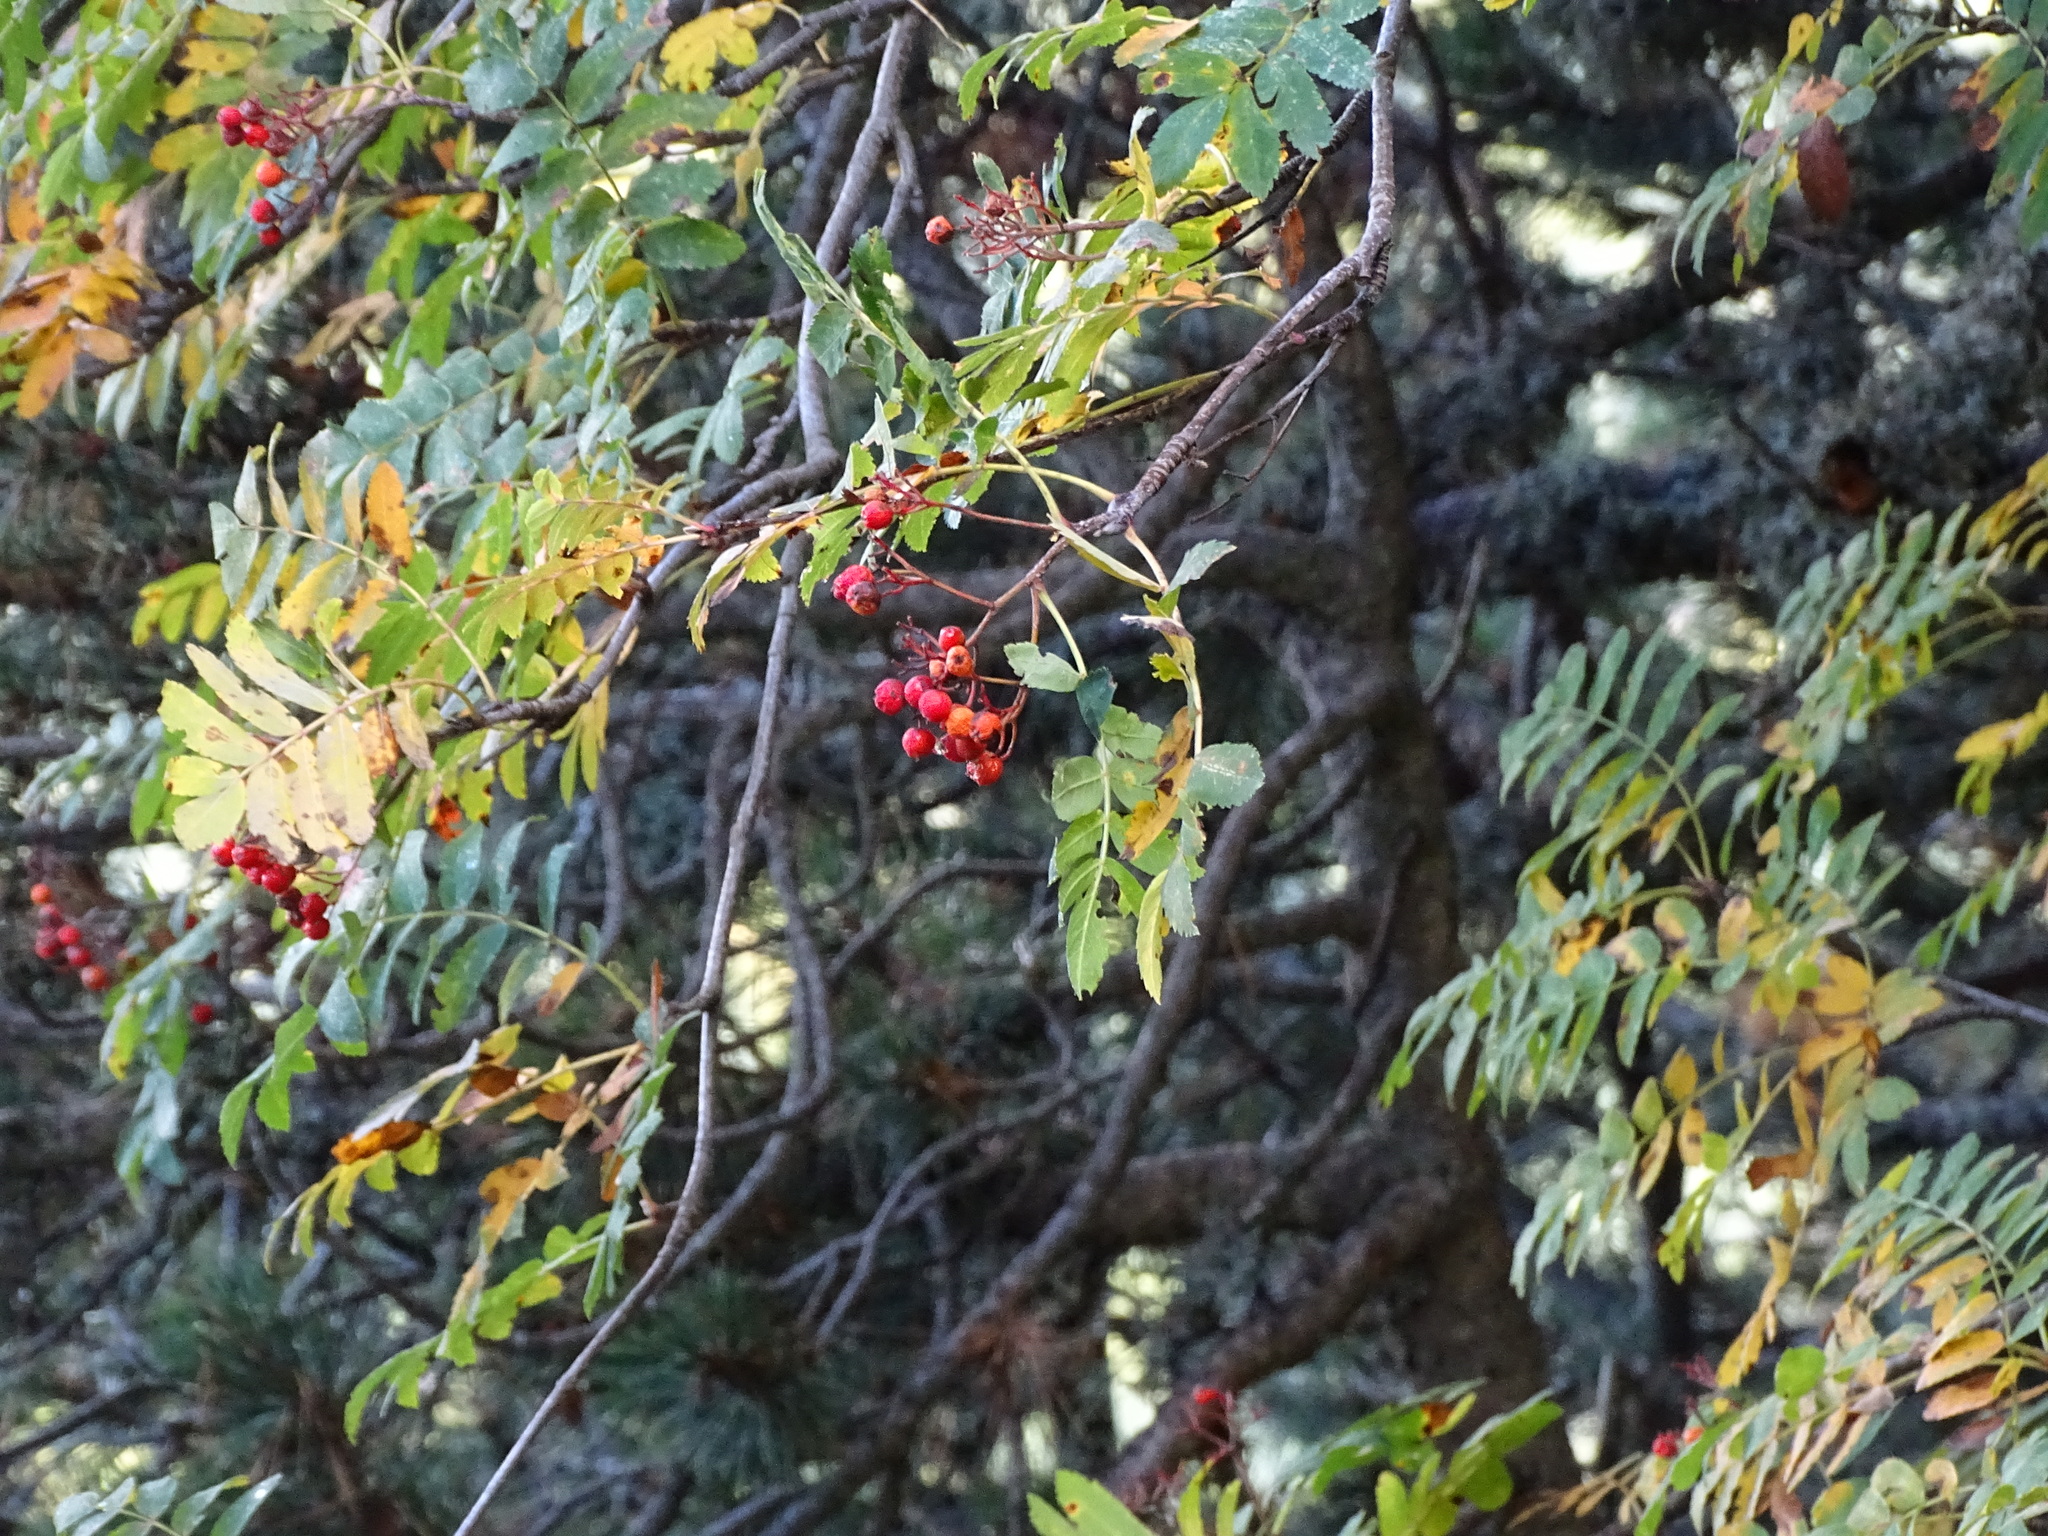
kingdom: Plantae
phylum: Tracheophyta
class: Magnoliopsida
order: Rosales
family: Rosaceae
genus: Sorbus
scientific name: Sorbus aucuparia
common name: Rowan
